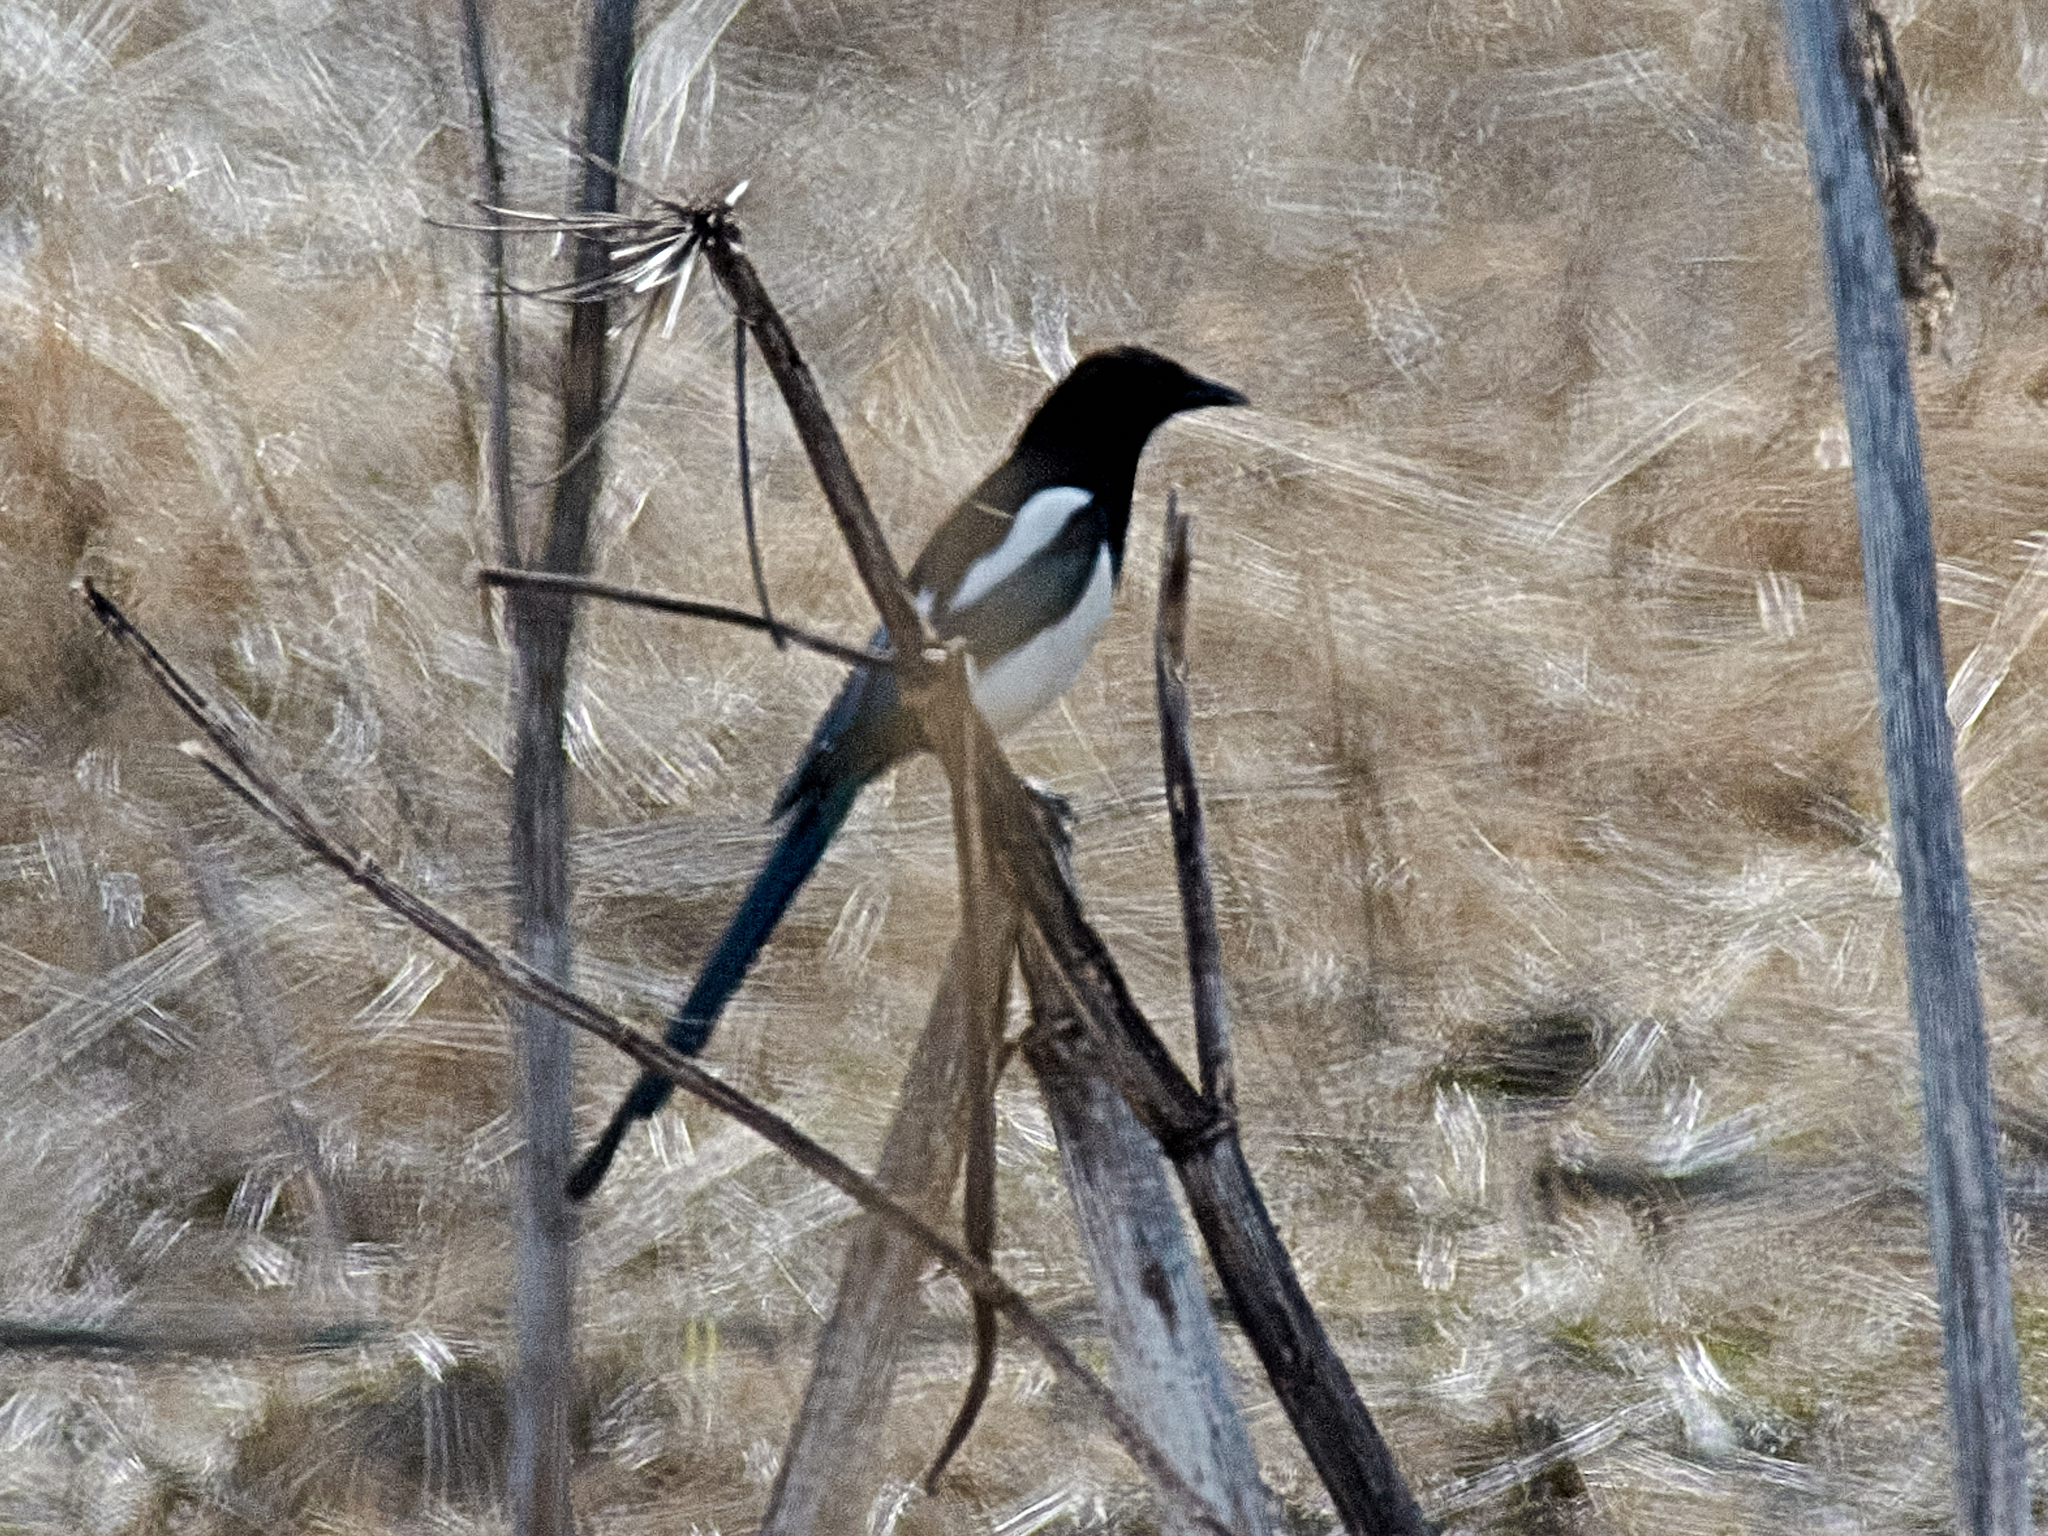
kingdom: Animalia
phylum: Chordata
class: Aves
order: Passeriformes
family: Corvidae
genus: Pica
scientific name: Pica pica
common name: Eurasian magpie
